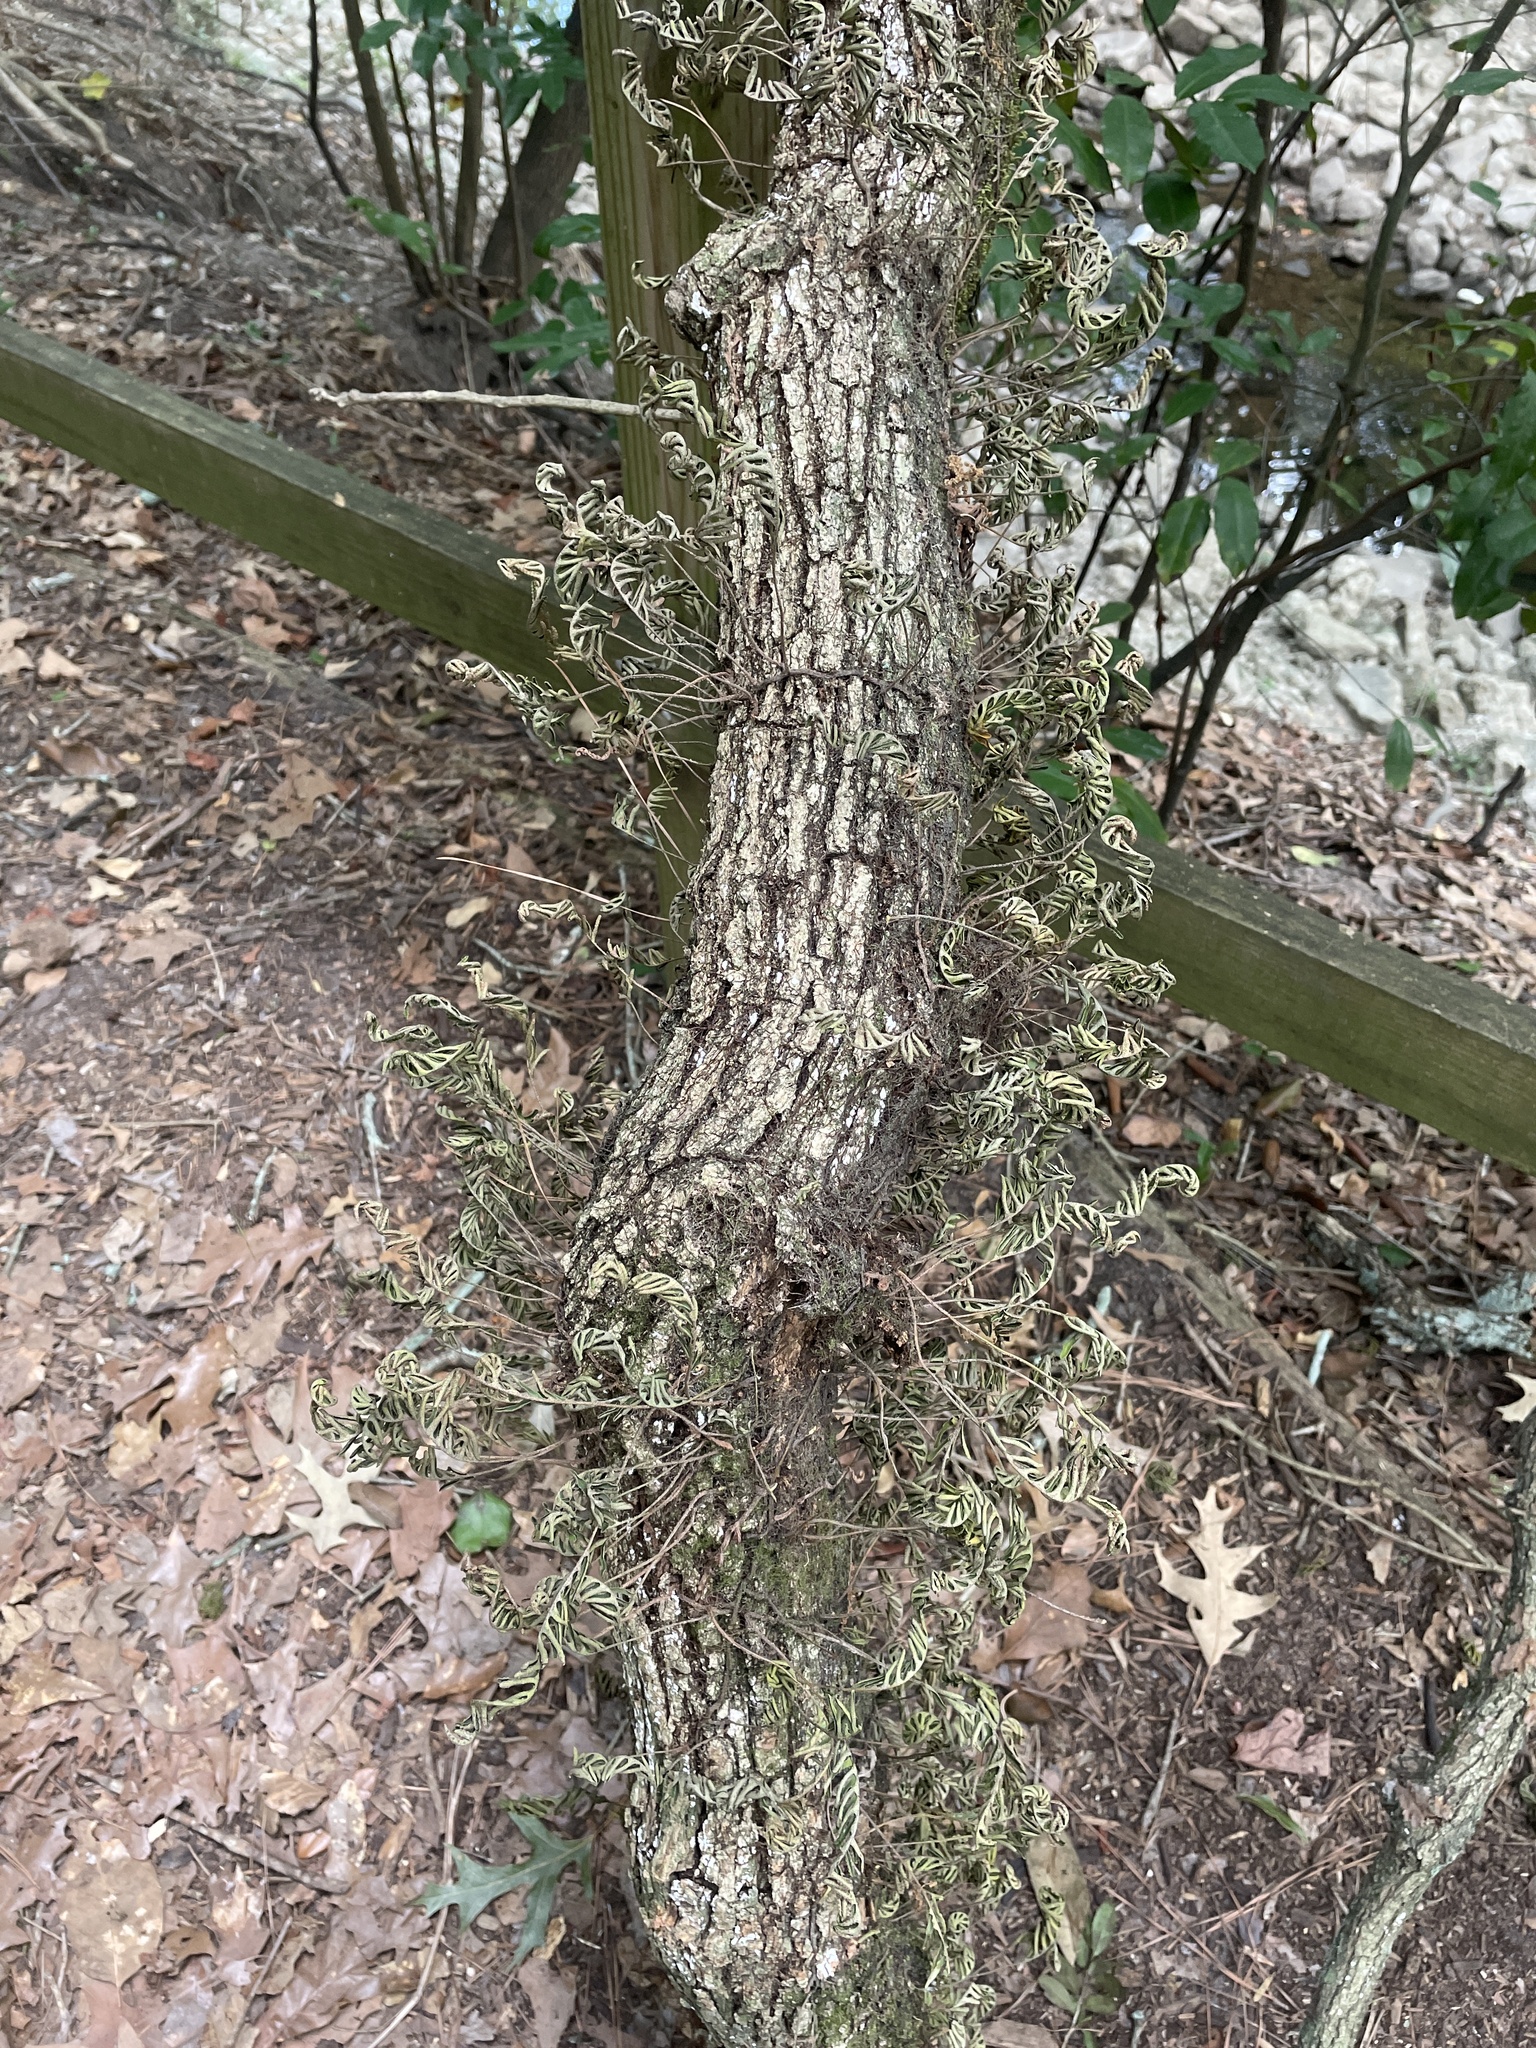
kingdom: Plantae
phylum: Tracheophyta
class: Polypodiopsida
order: Polypodiales
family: Polypodiaceae
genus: Pleopeltis
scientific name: Pleopeltis michauxiana
